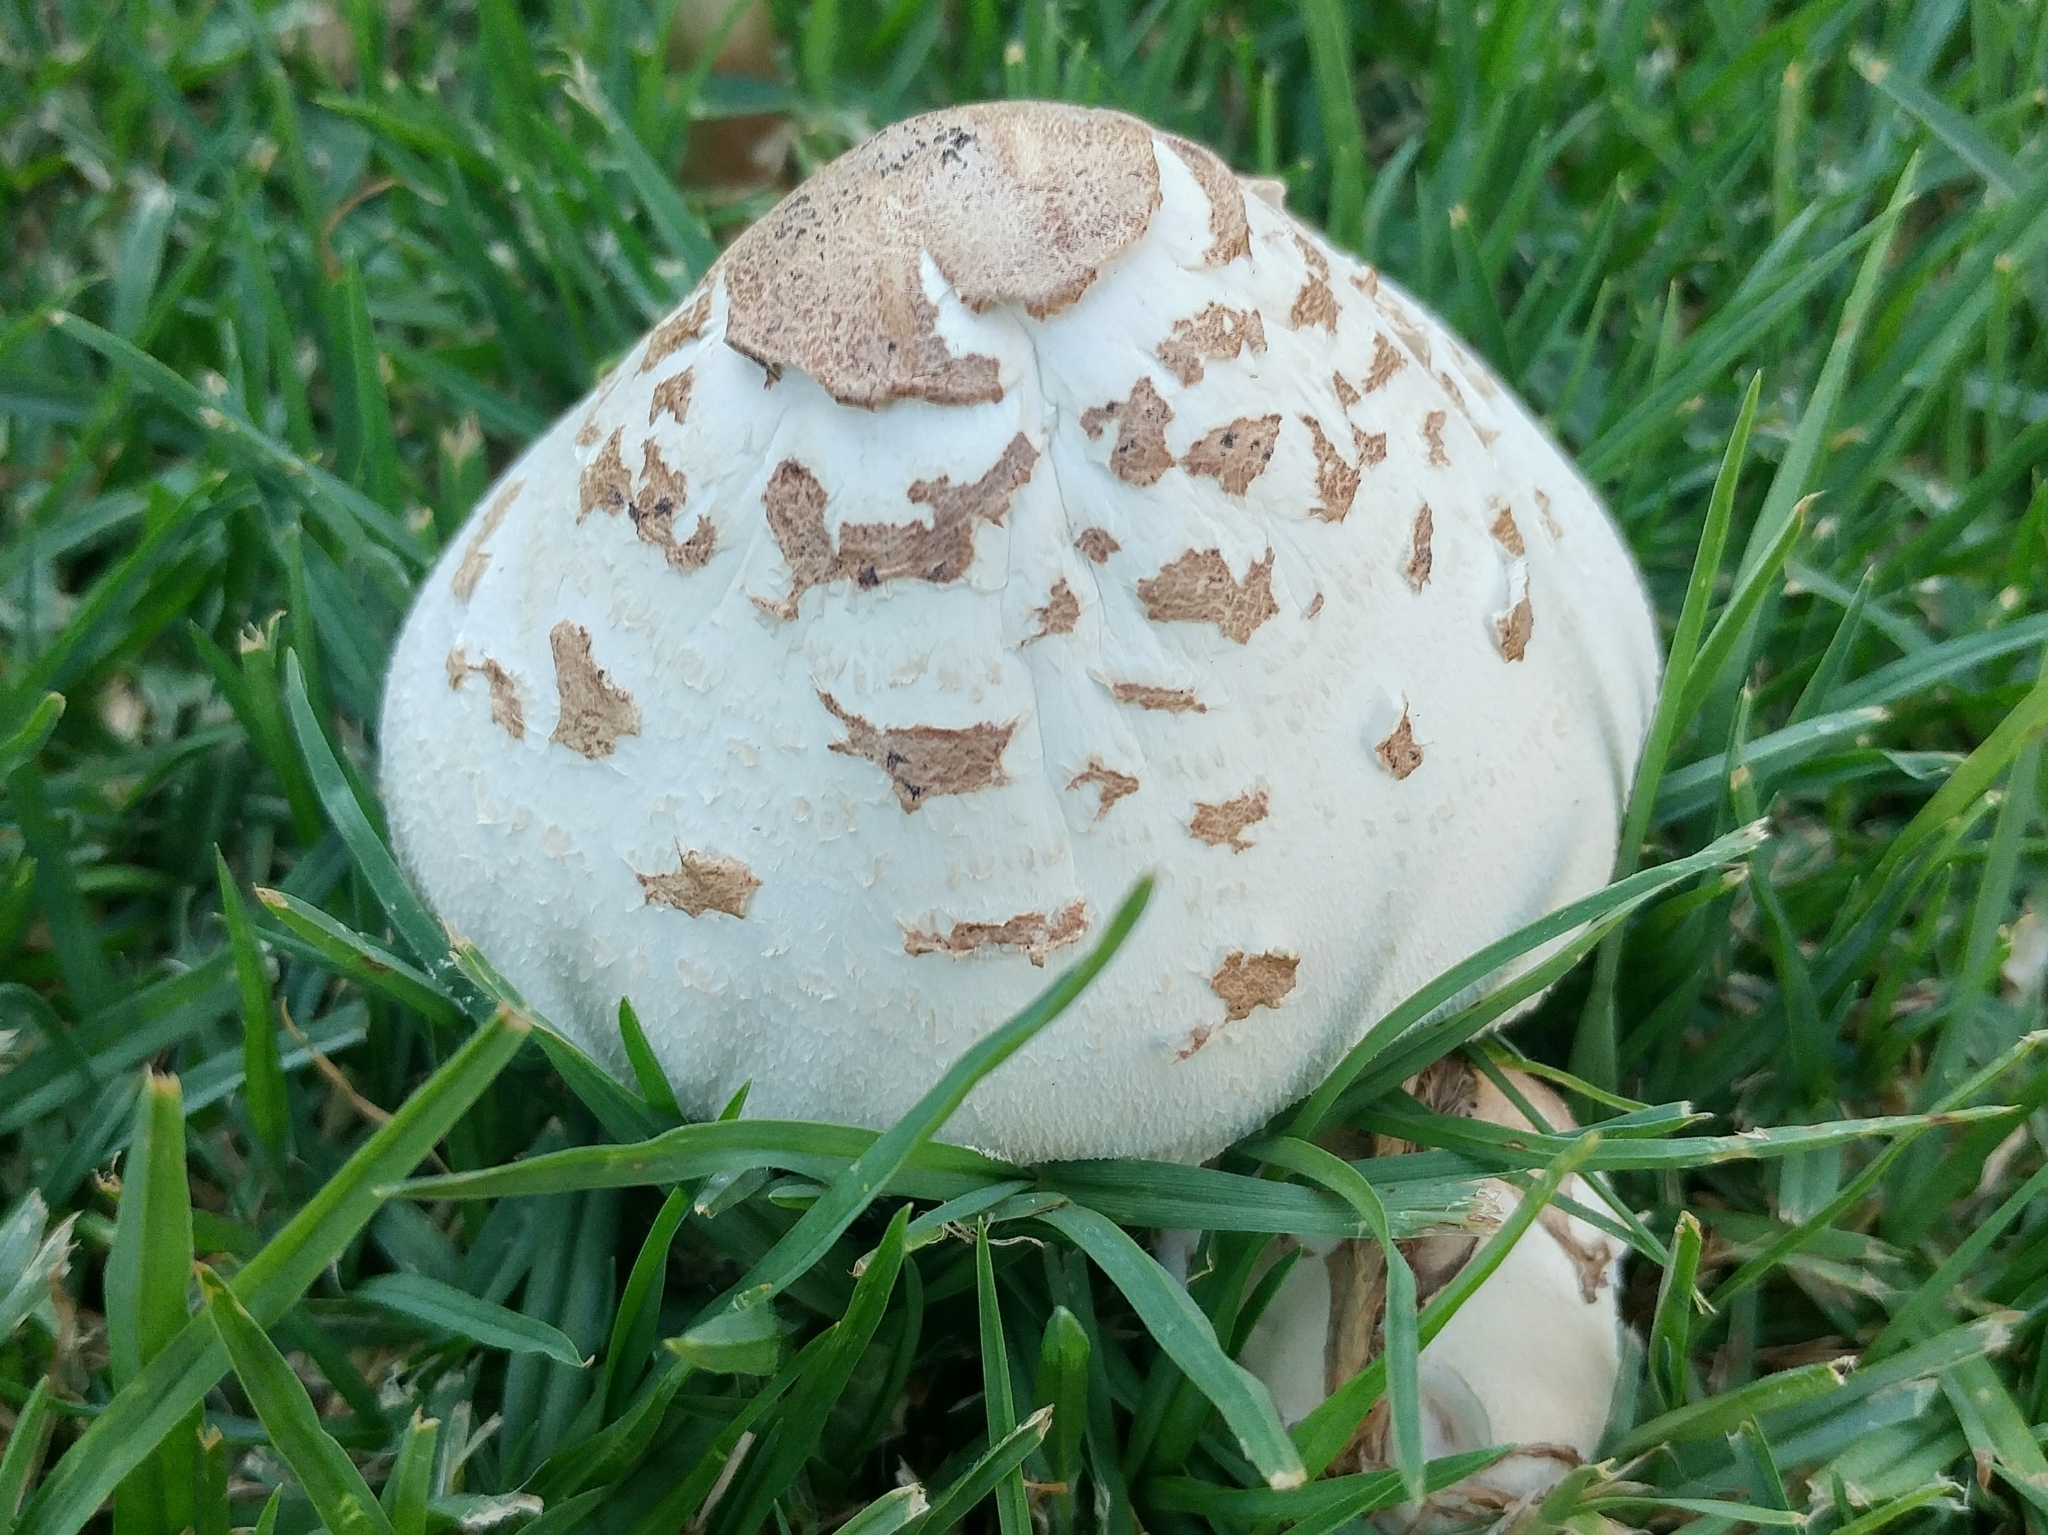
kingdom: Fungi
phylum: Basidiomycota
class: Agaricomycetes
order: Agaricales
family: Agaricaceae
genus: Chlorophyllum
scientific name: Chlorophyllum molybdites
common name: False parasol
